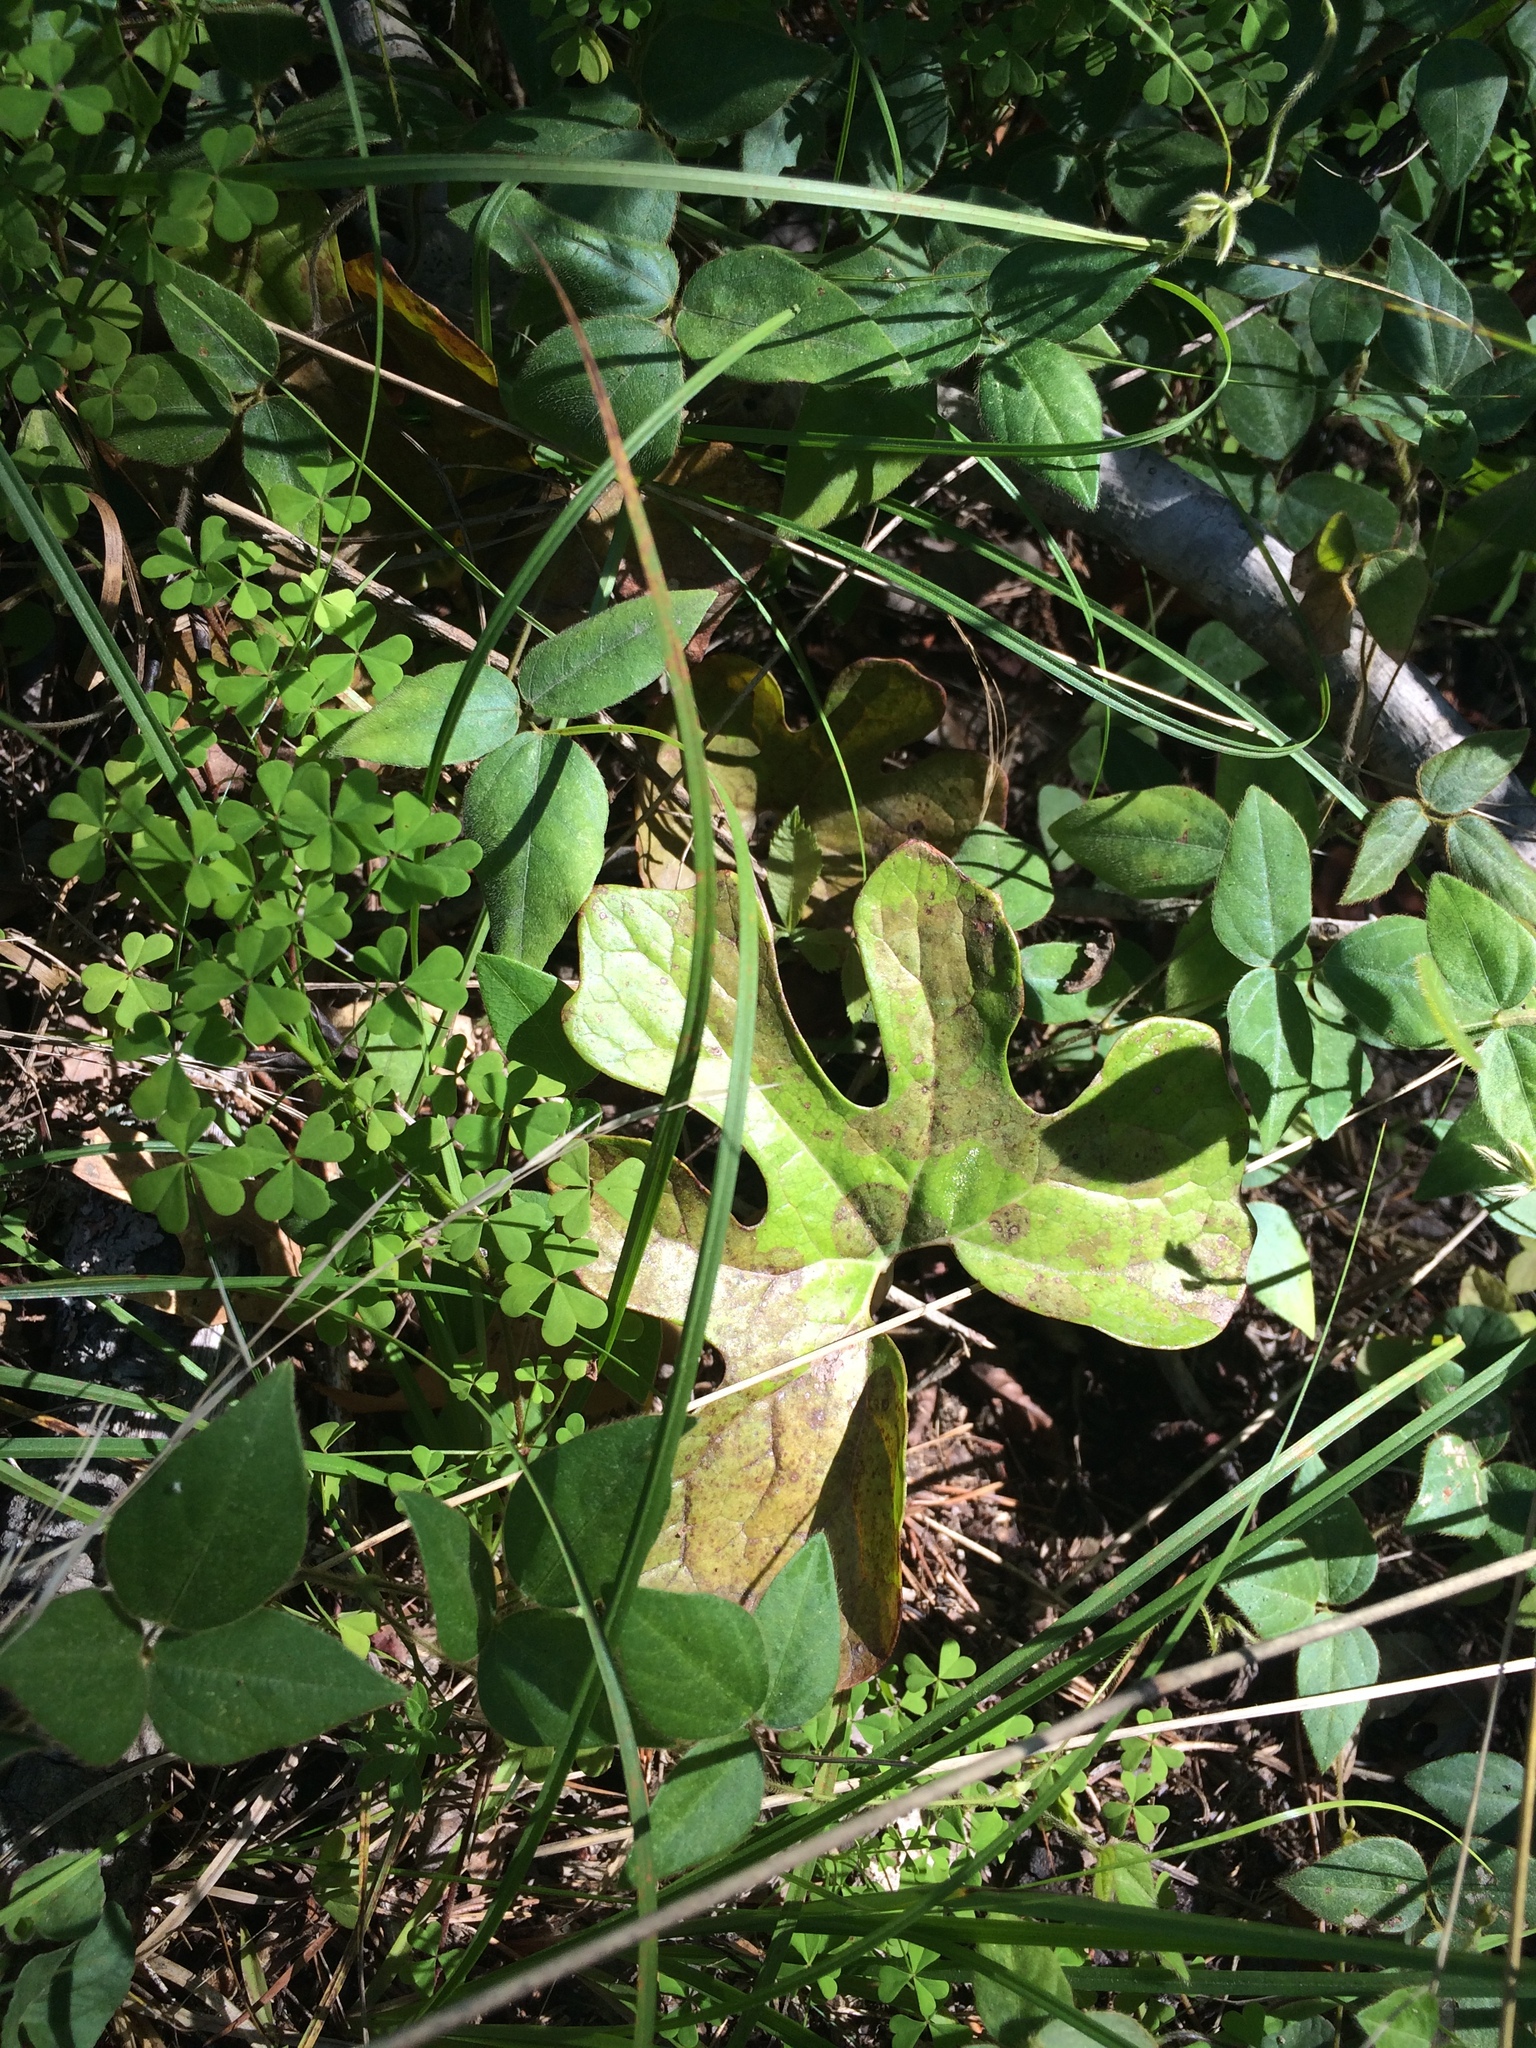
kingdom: Plantae
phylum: Tracheophyta
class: Magnoliopsida
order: Ranunculales
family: Papaveraceae
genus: Sanguinaria
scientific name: Sanguinaria canadensis
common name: Bloodroot
